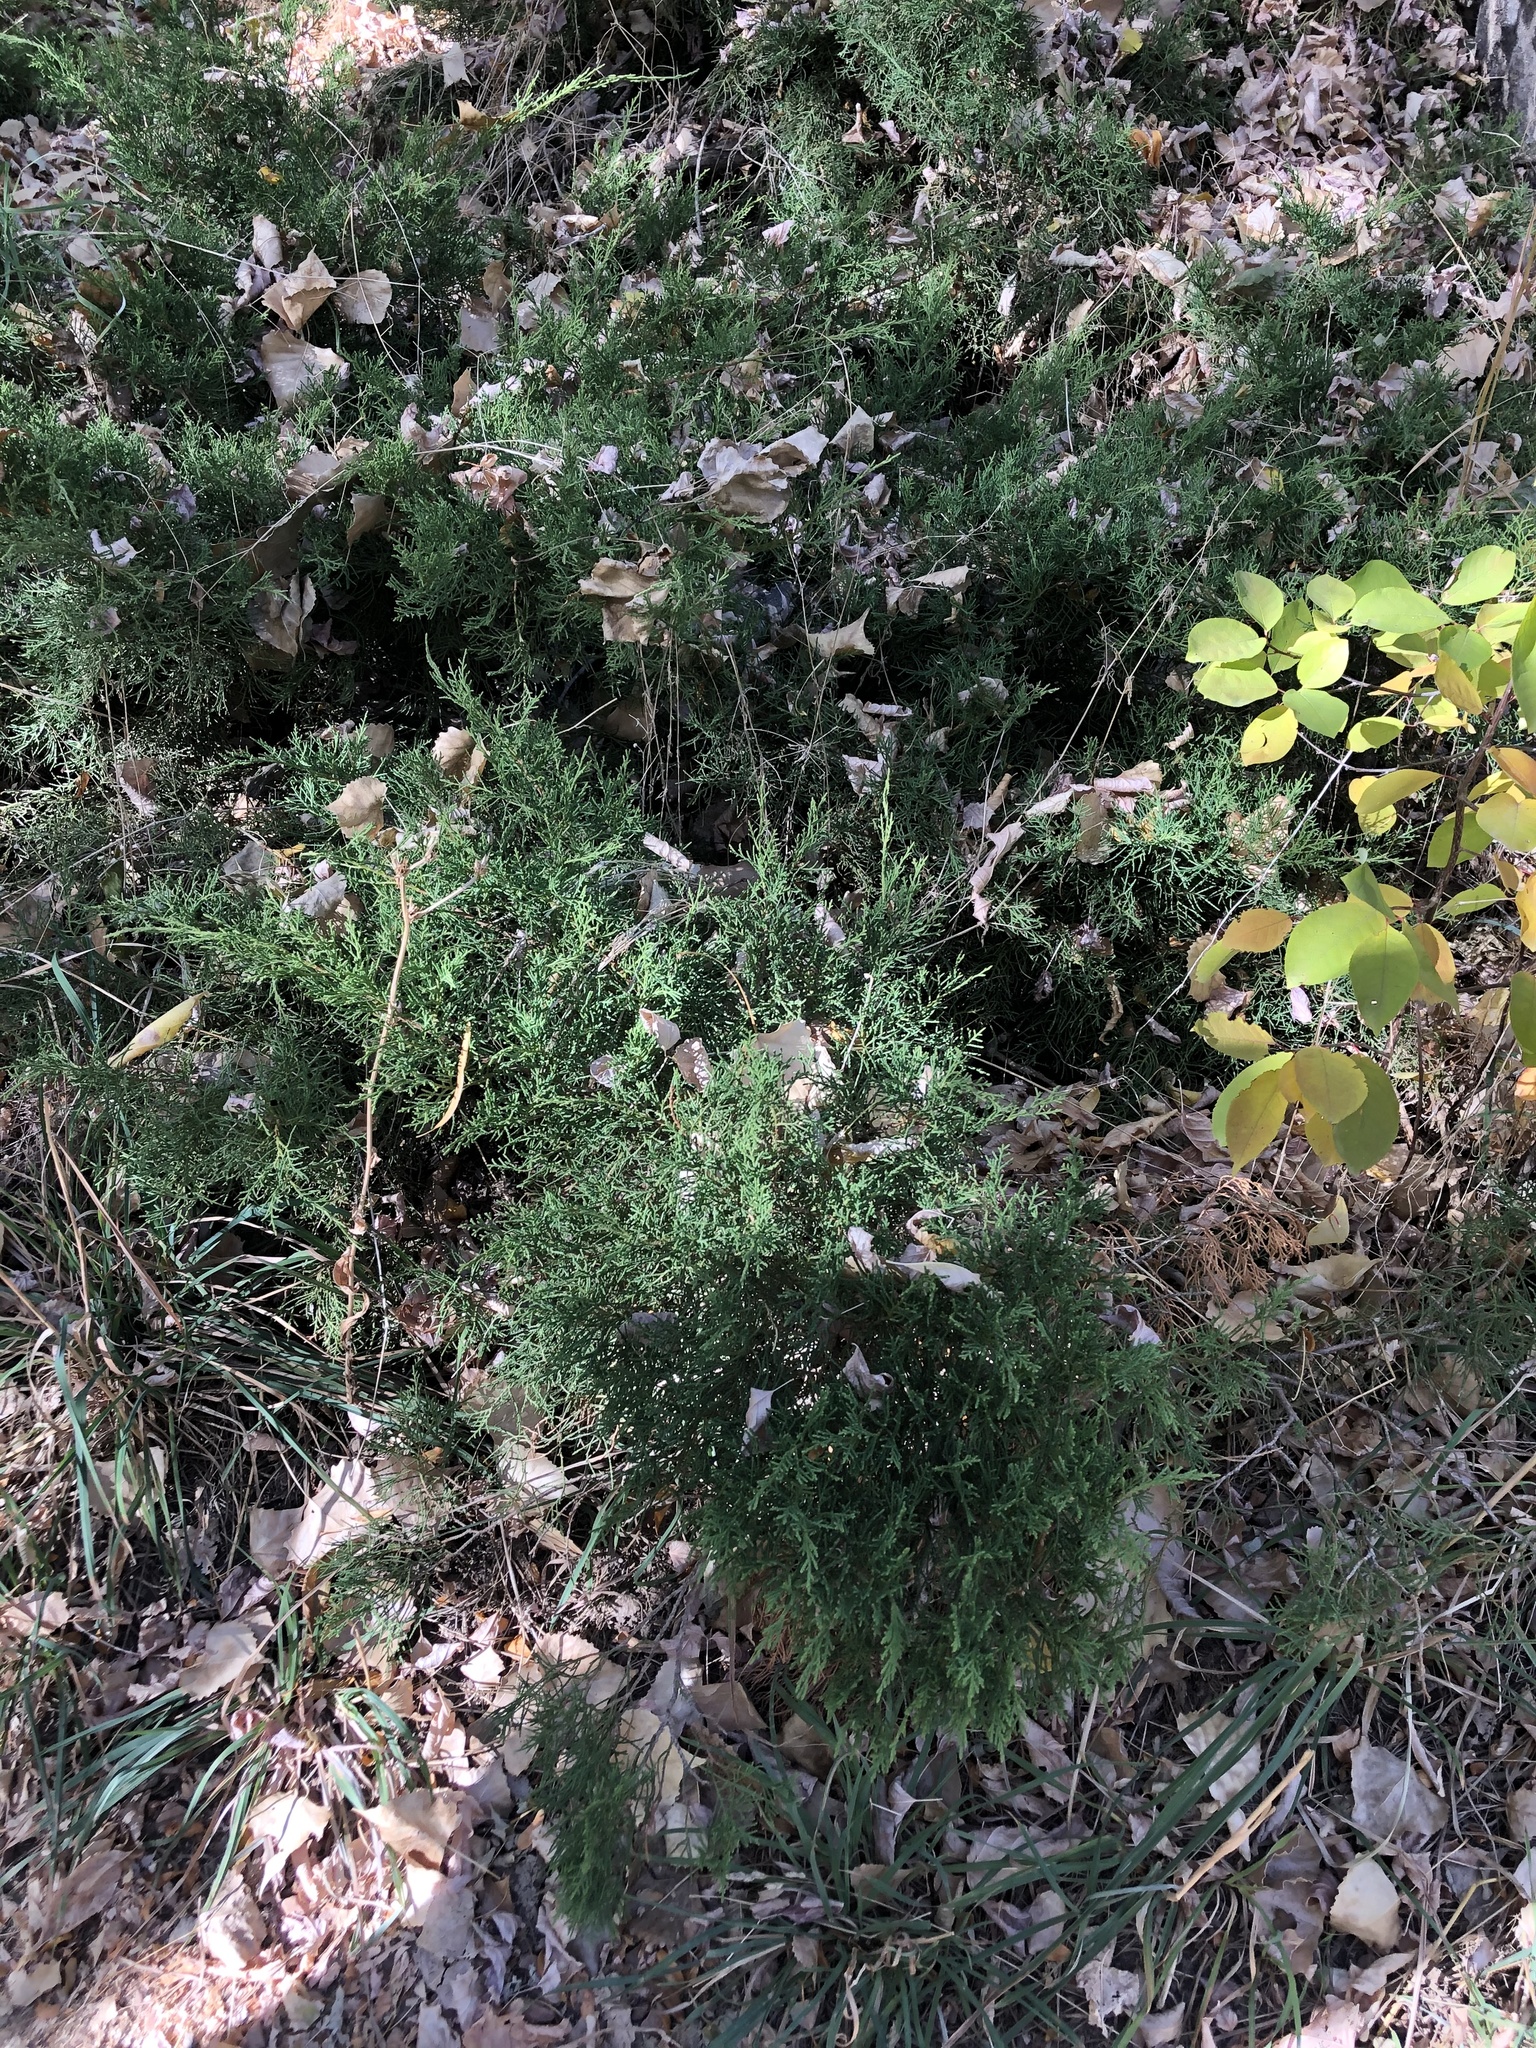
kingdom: Plantae
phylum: Tracheophyta
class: Pinopsida
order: Pinales
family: Cupressaceae
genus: Juniperus
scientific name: Juniperus communis
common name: Common juniper
